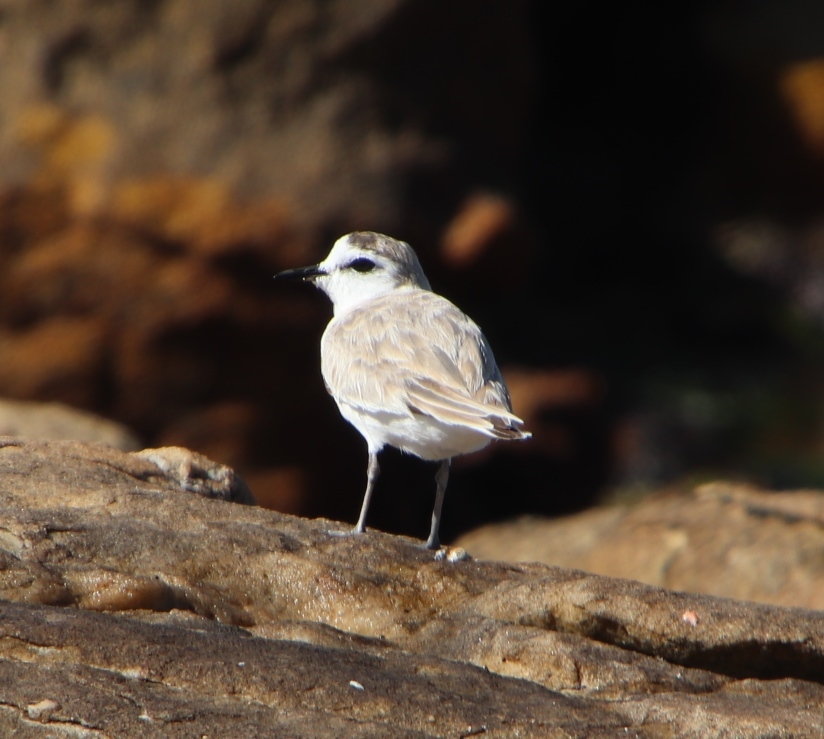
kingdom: Animalia
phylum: Chordata
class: Aves
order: Charadriiformes
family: Charadriidae
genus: Anarhynchus
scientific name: Anarhynchus
